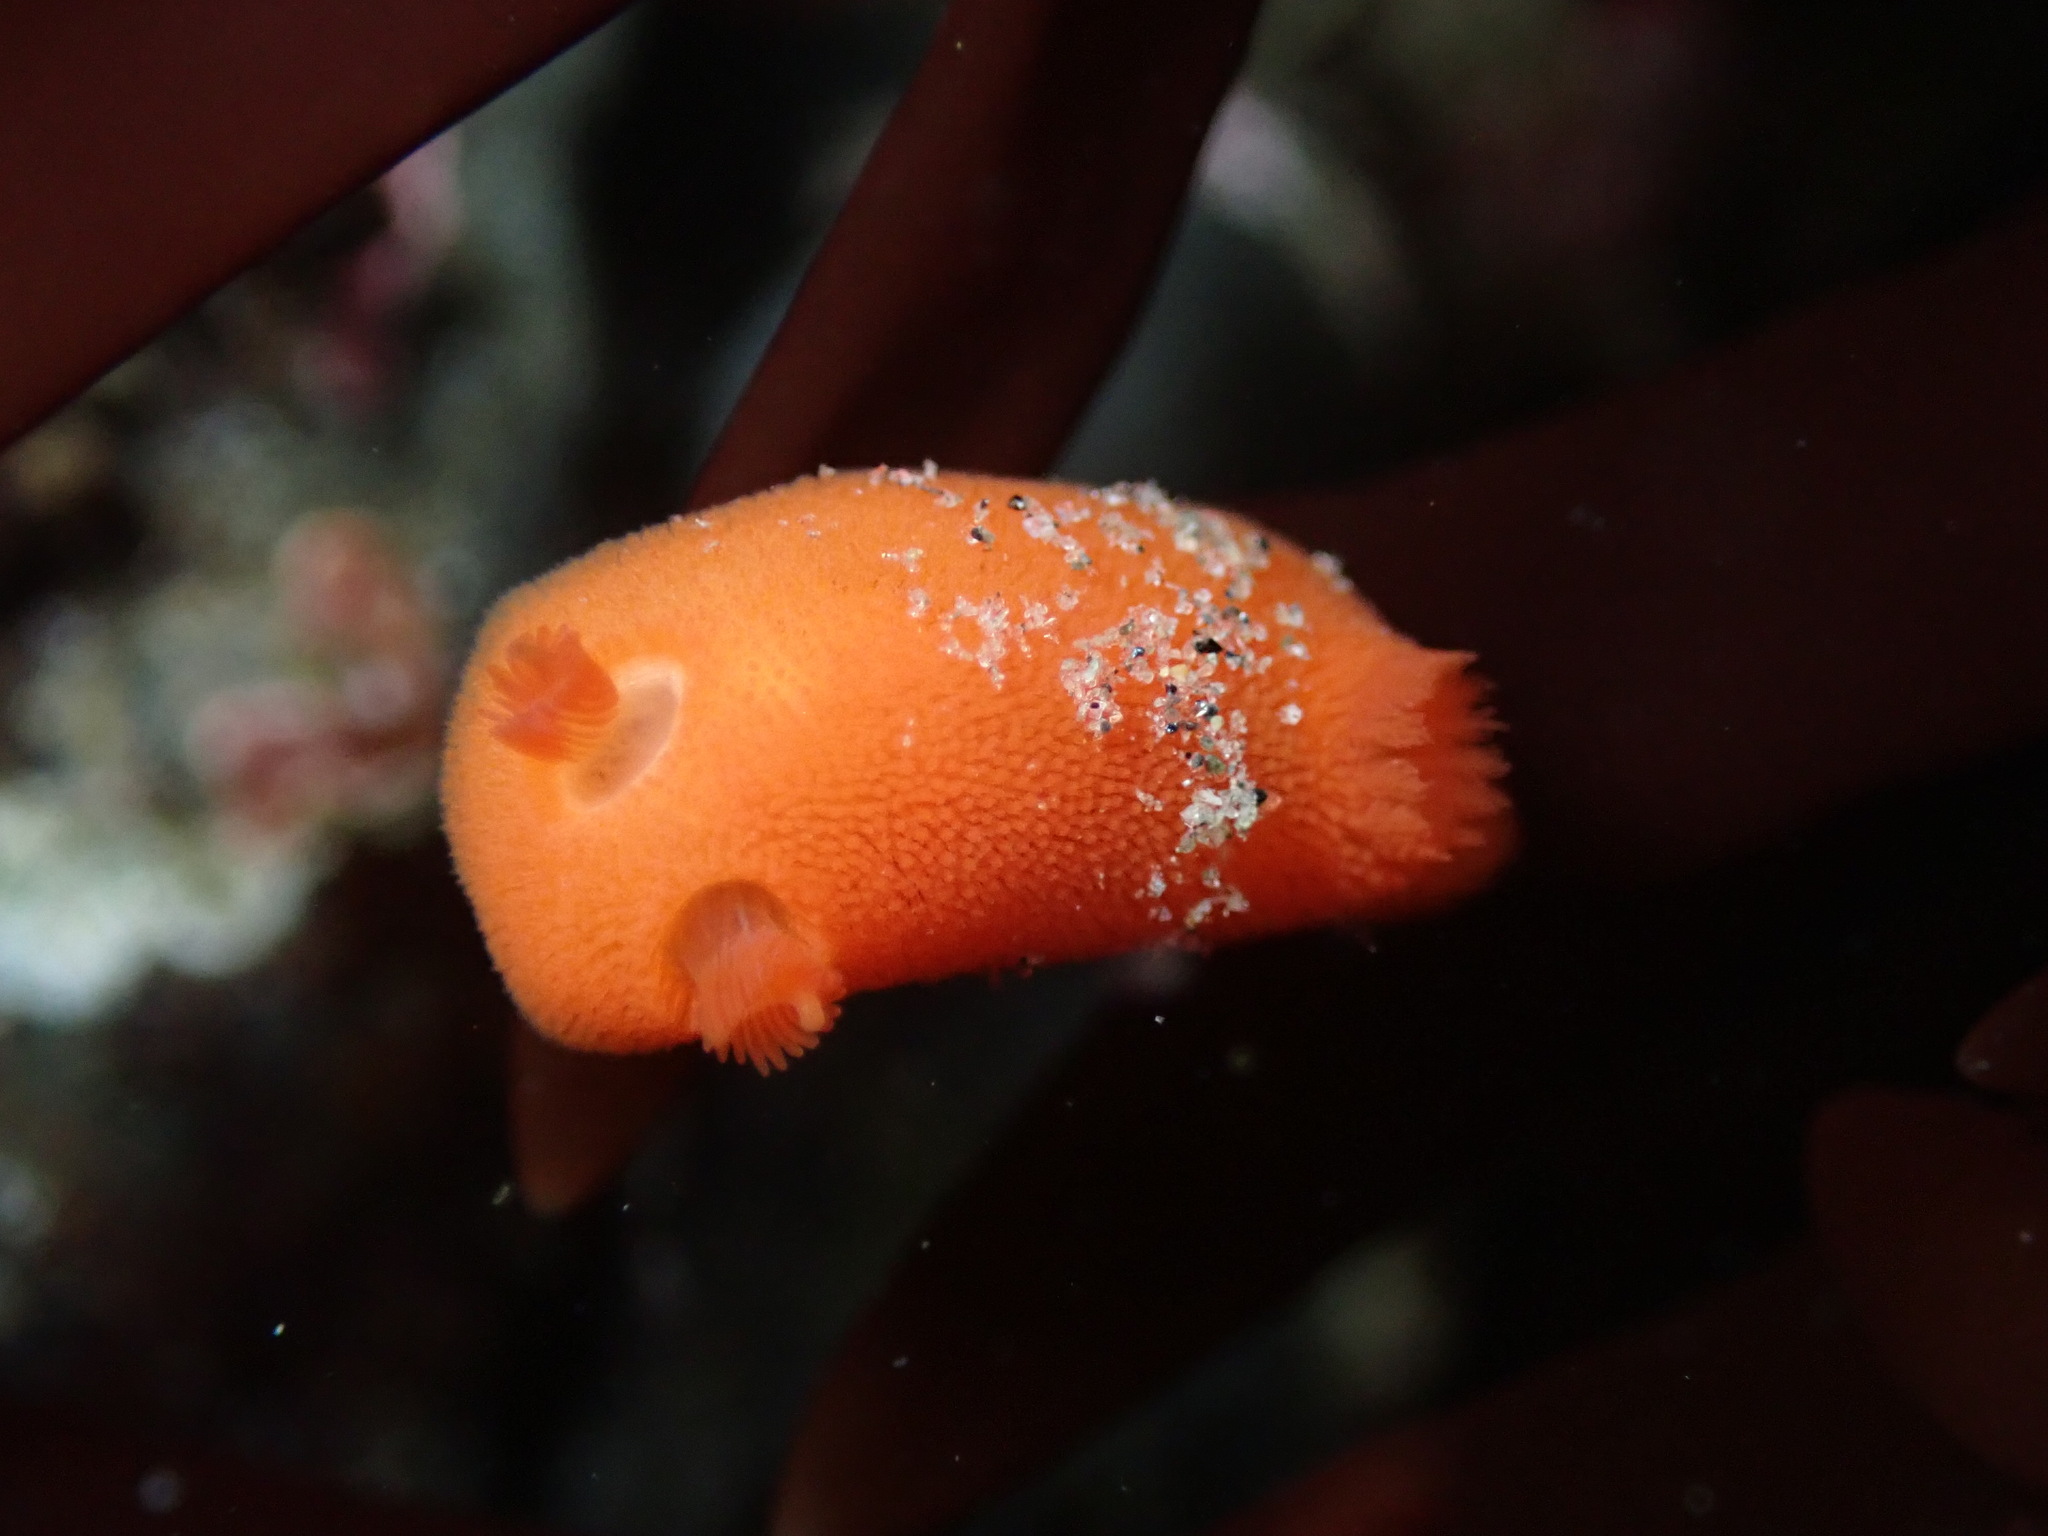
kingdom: Animalia
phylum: Mollusca
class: Gastropoda
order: Nudibranchia
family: Discodorididae
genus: Rostanga
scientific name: Rostanga pulchra
